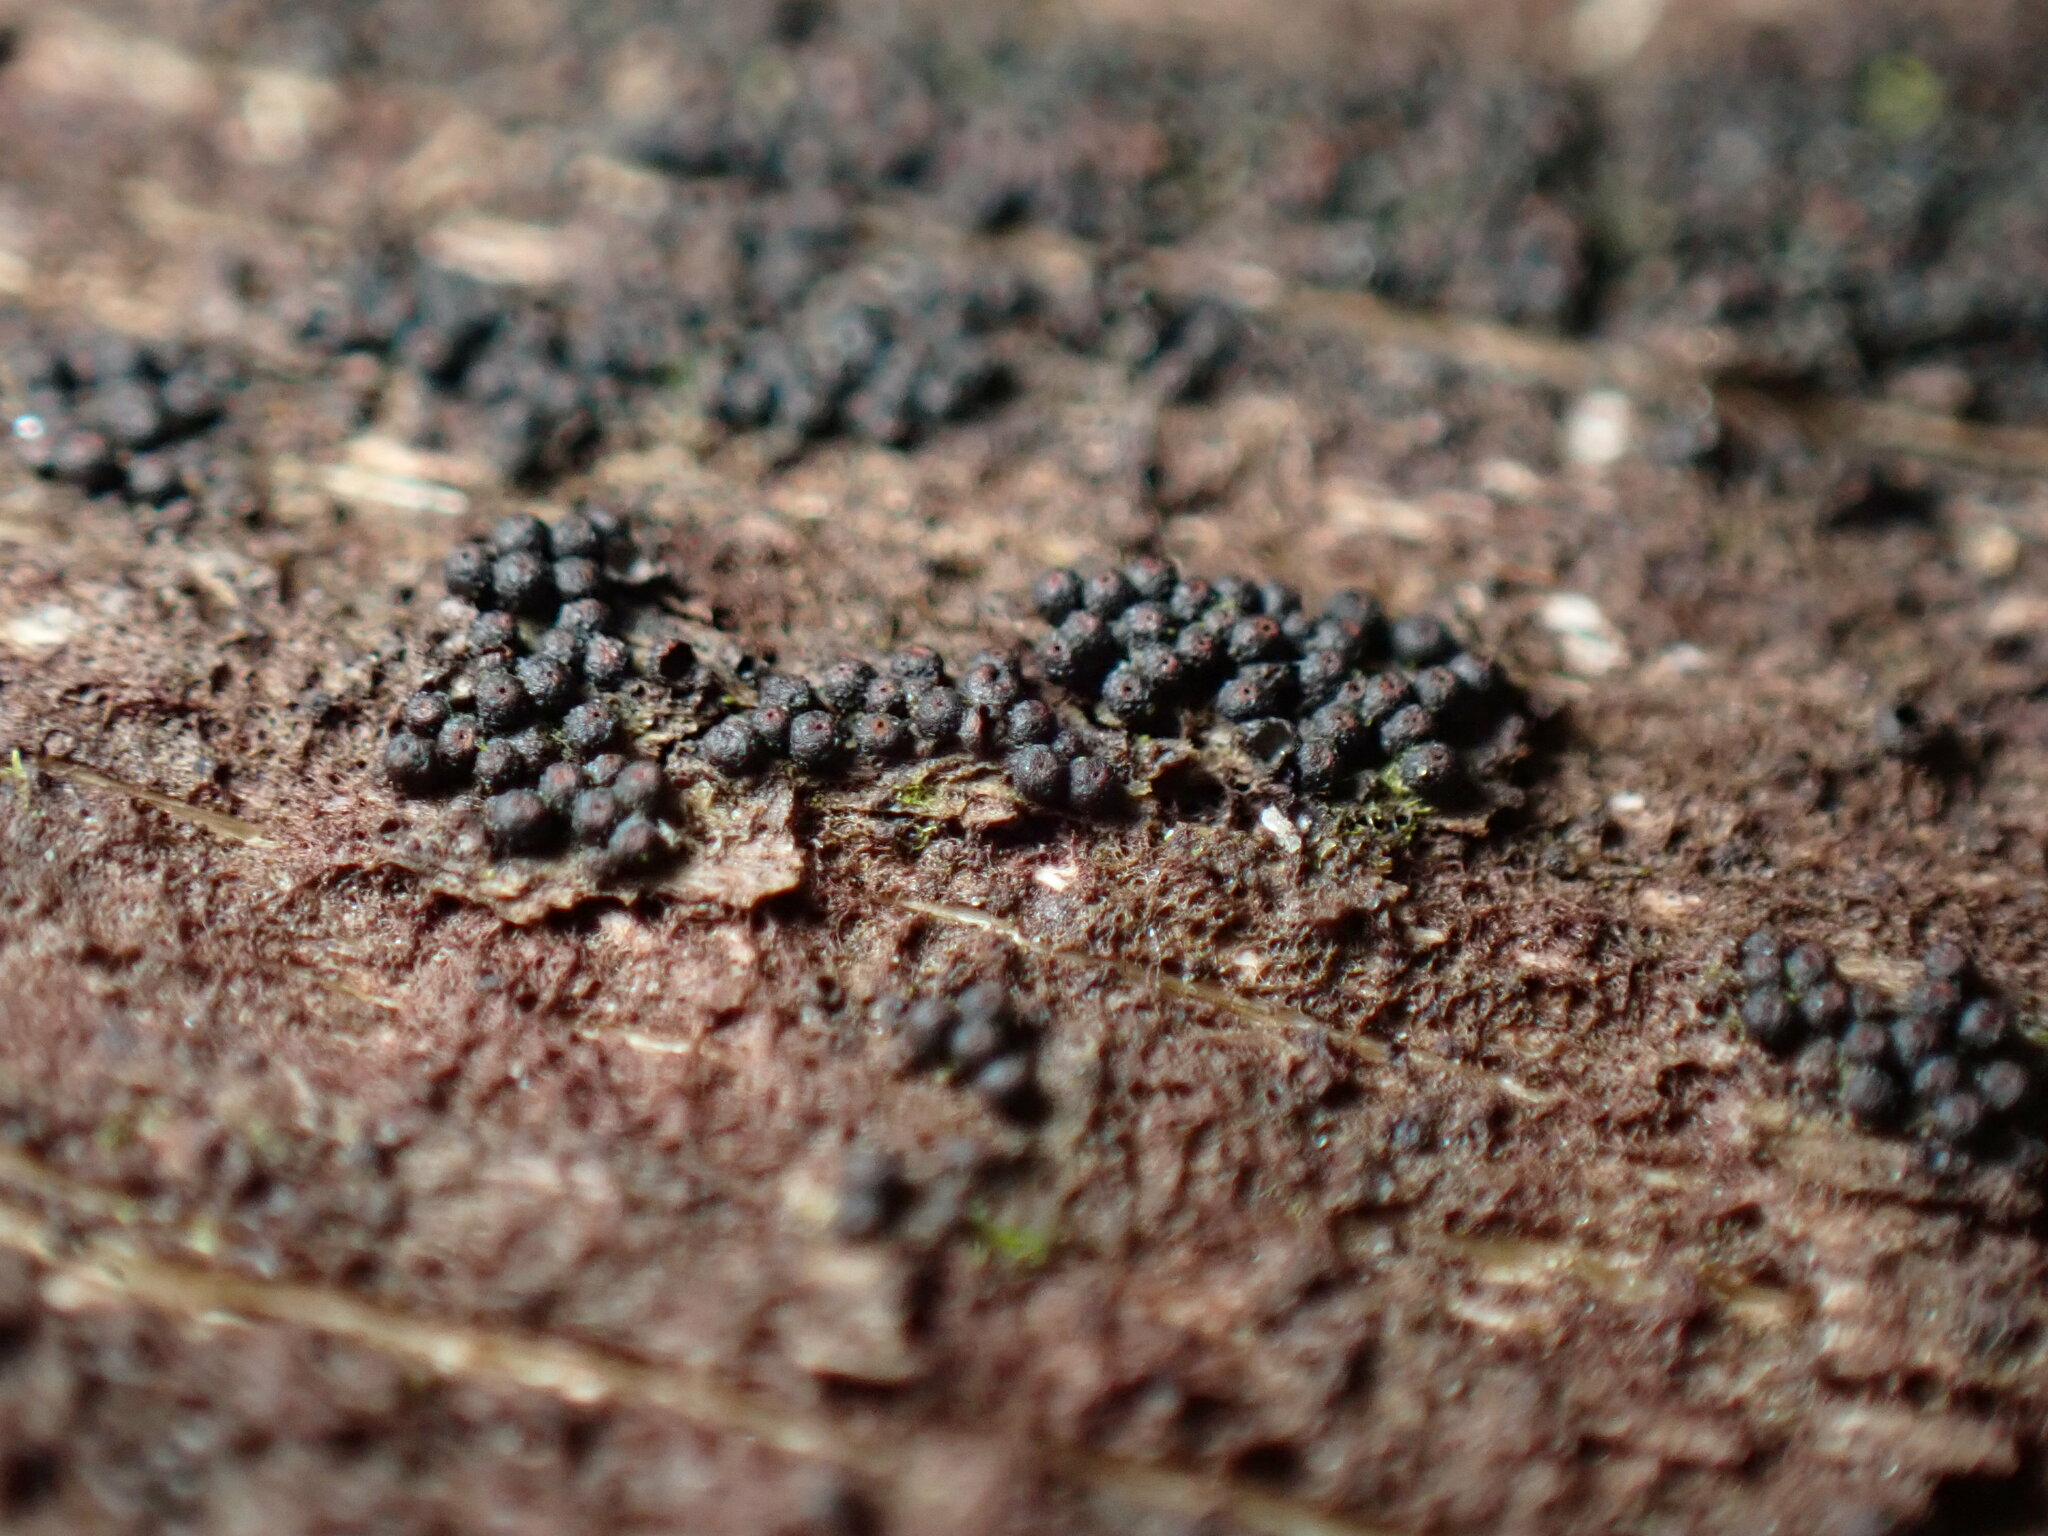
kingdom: Fungi
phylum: Ascomycota
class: Dothideomycetes
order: Pleosporales
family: Melanommataceae
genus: Byssosphaeria
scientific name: Byssosphaeria rhodomphala
